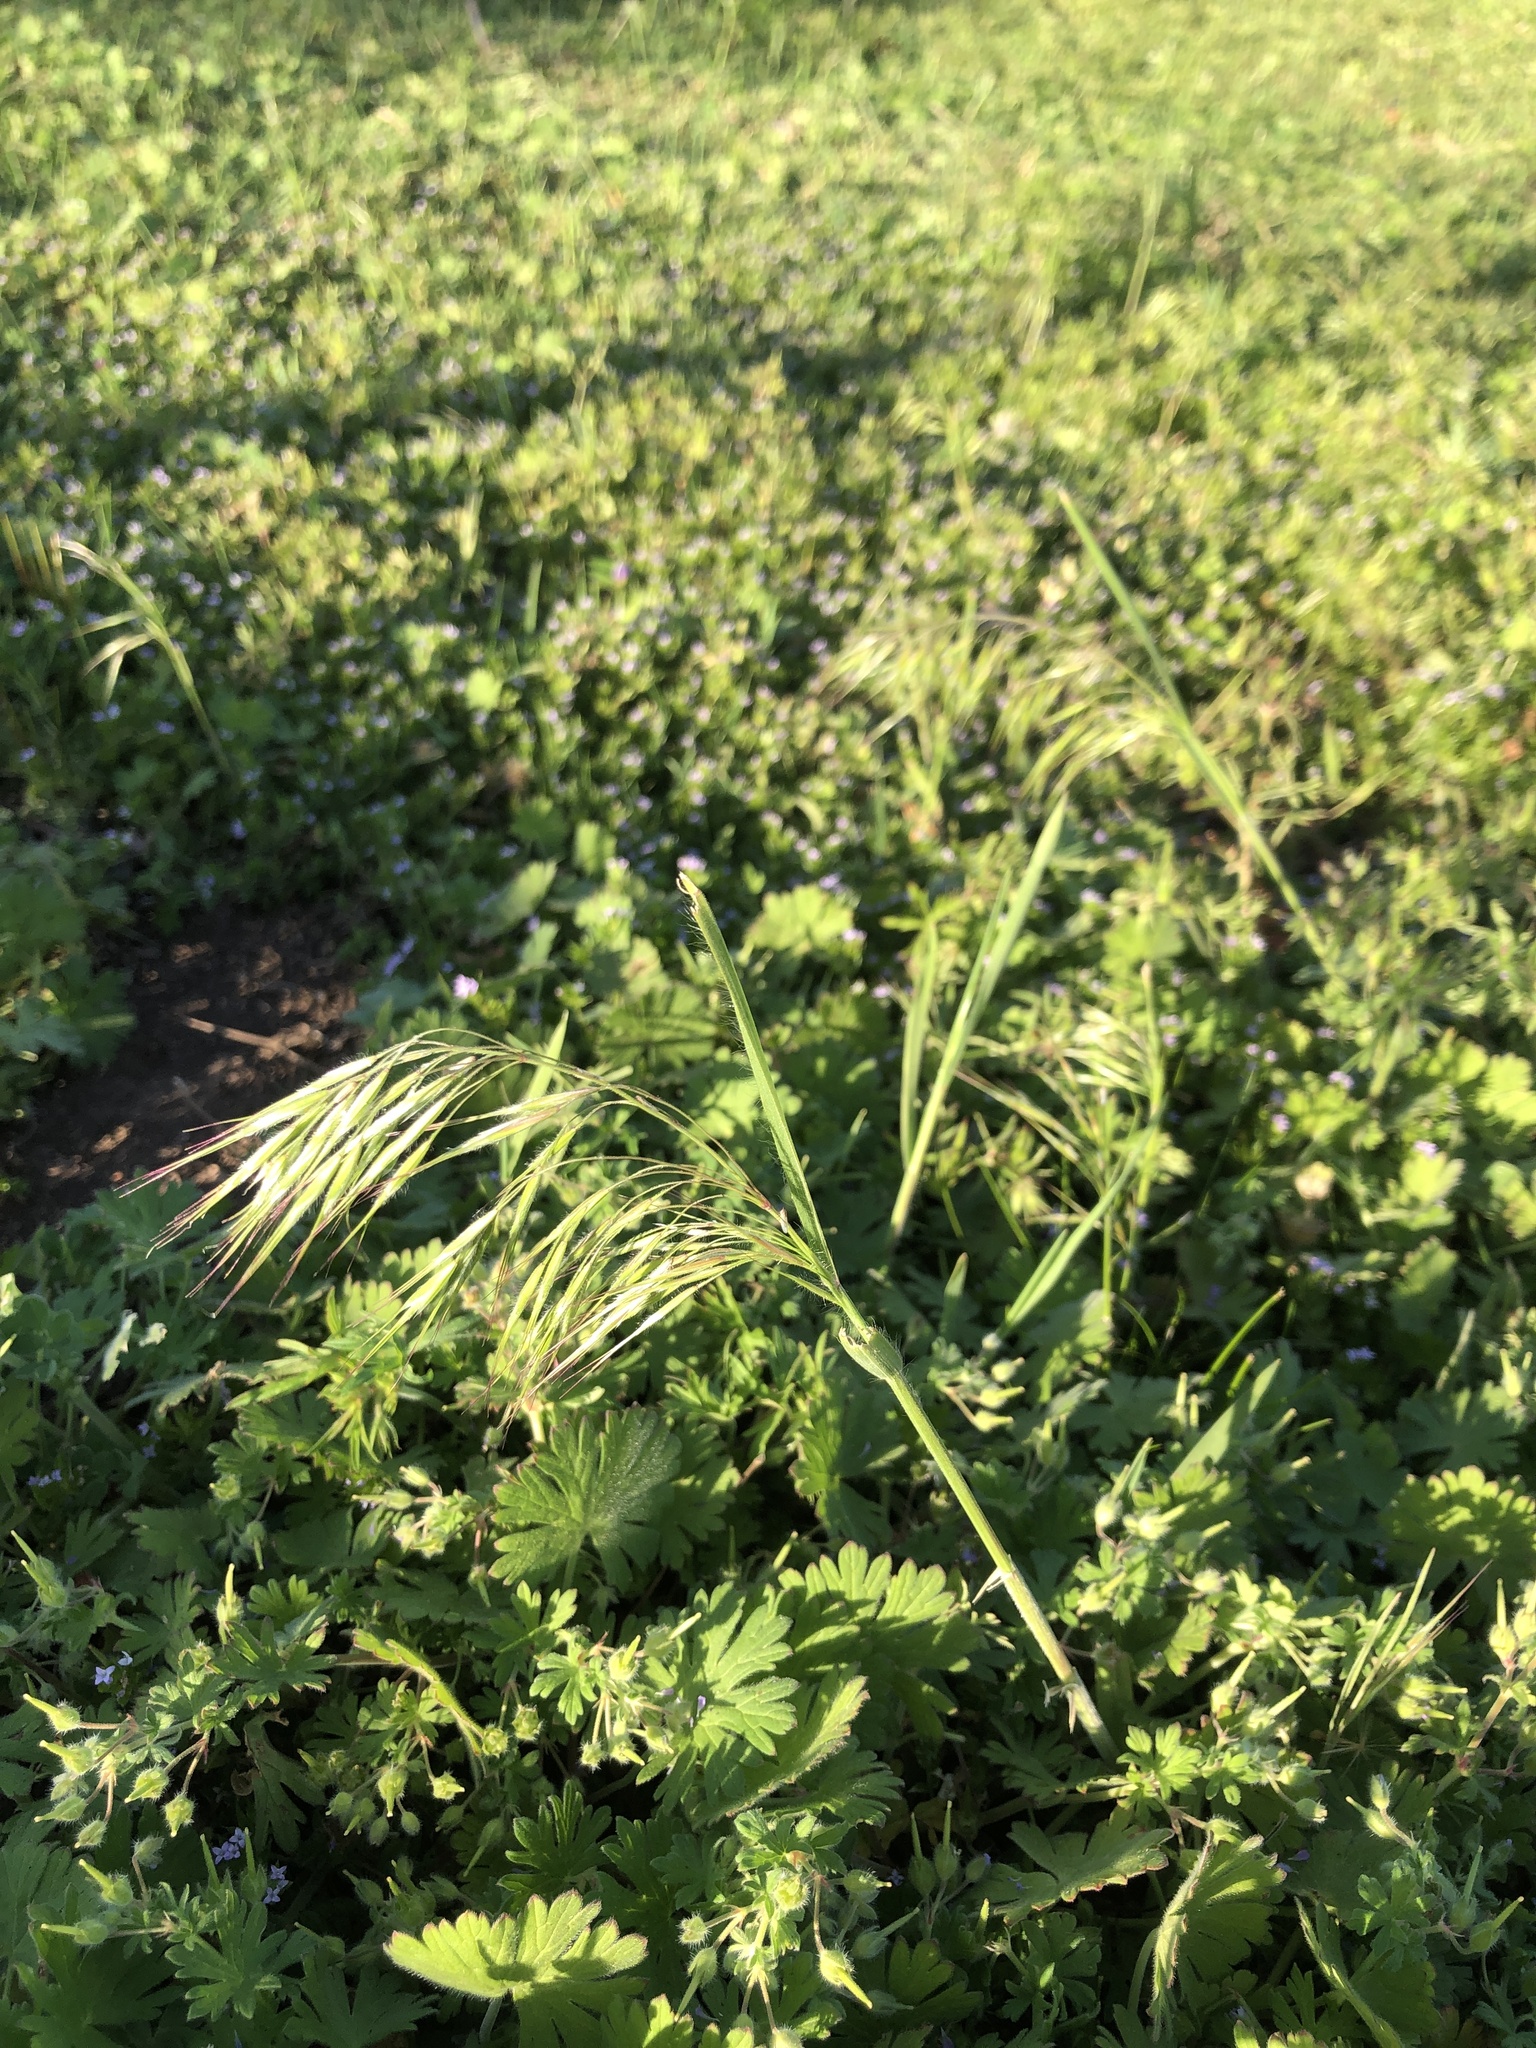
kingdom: Plantae
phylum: Tracheophyta
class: Liliopsida
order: Poales
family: Poaceae
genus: Bromus
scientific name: Bromus tectorum
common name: Cheatgrass
